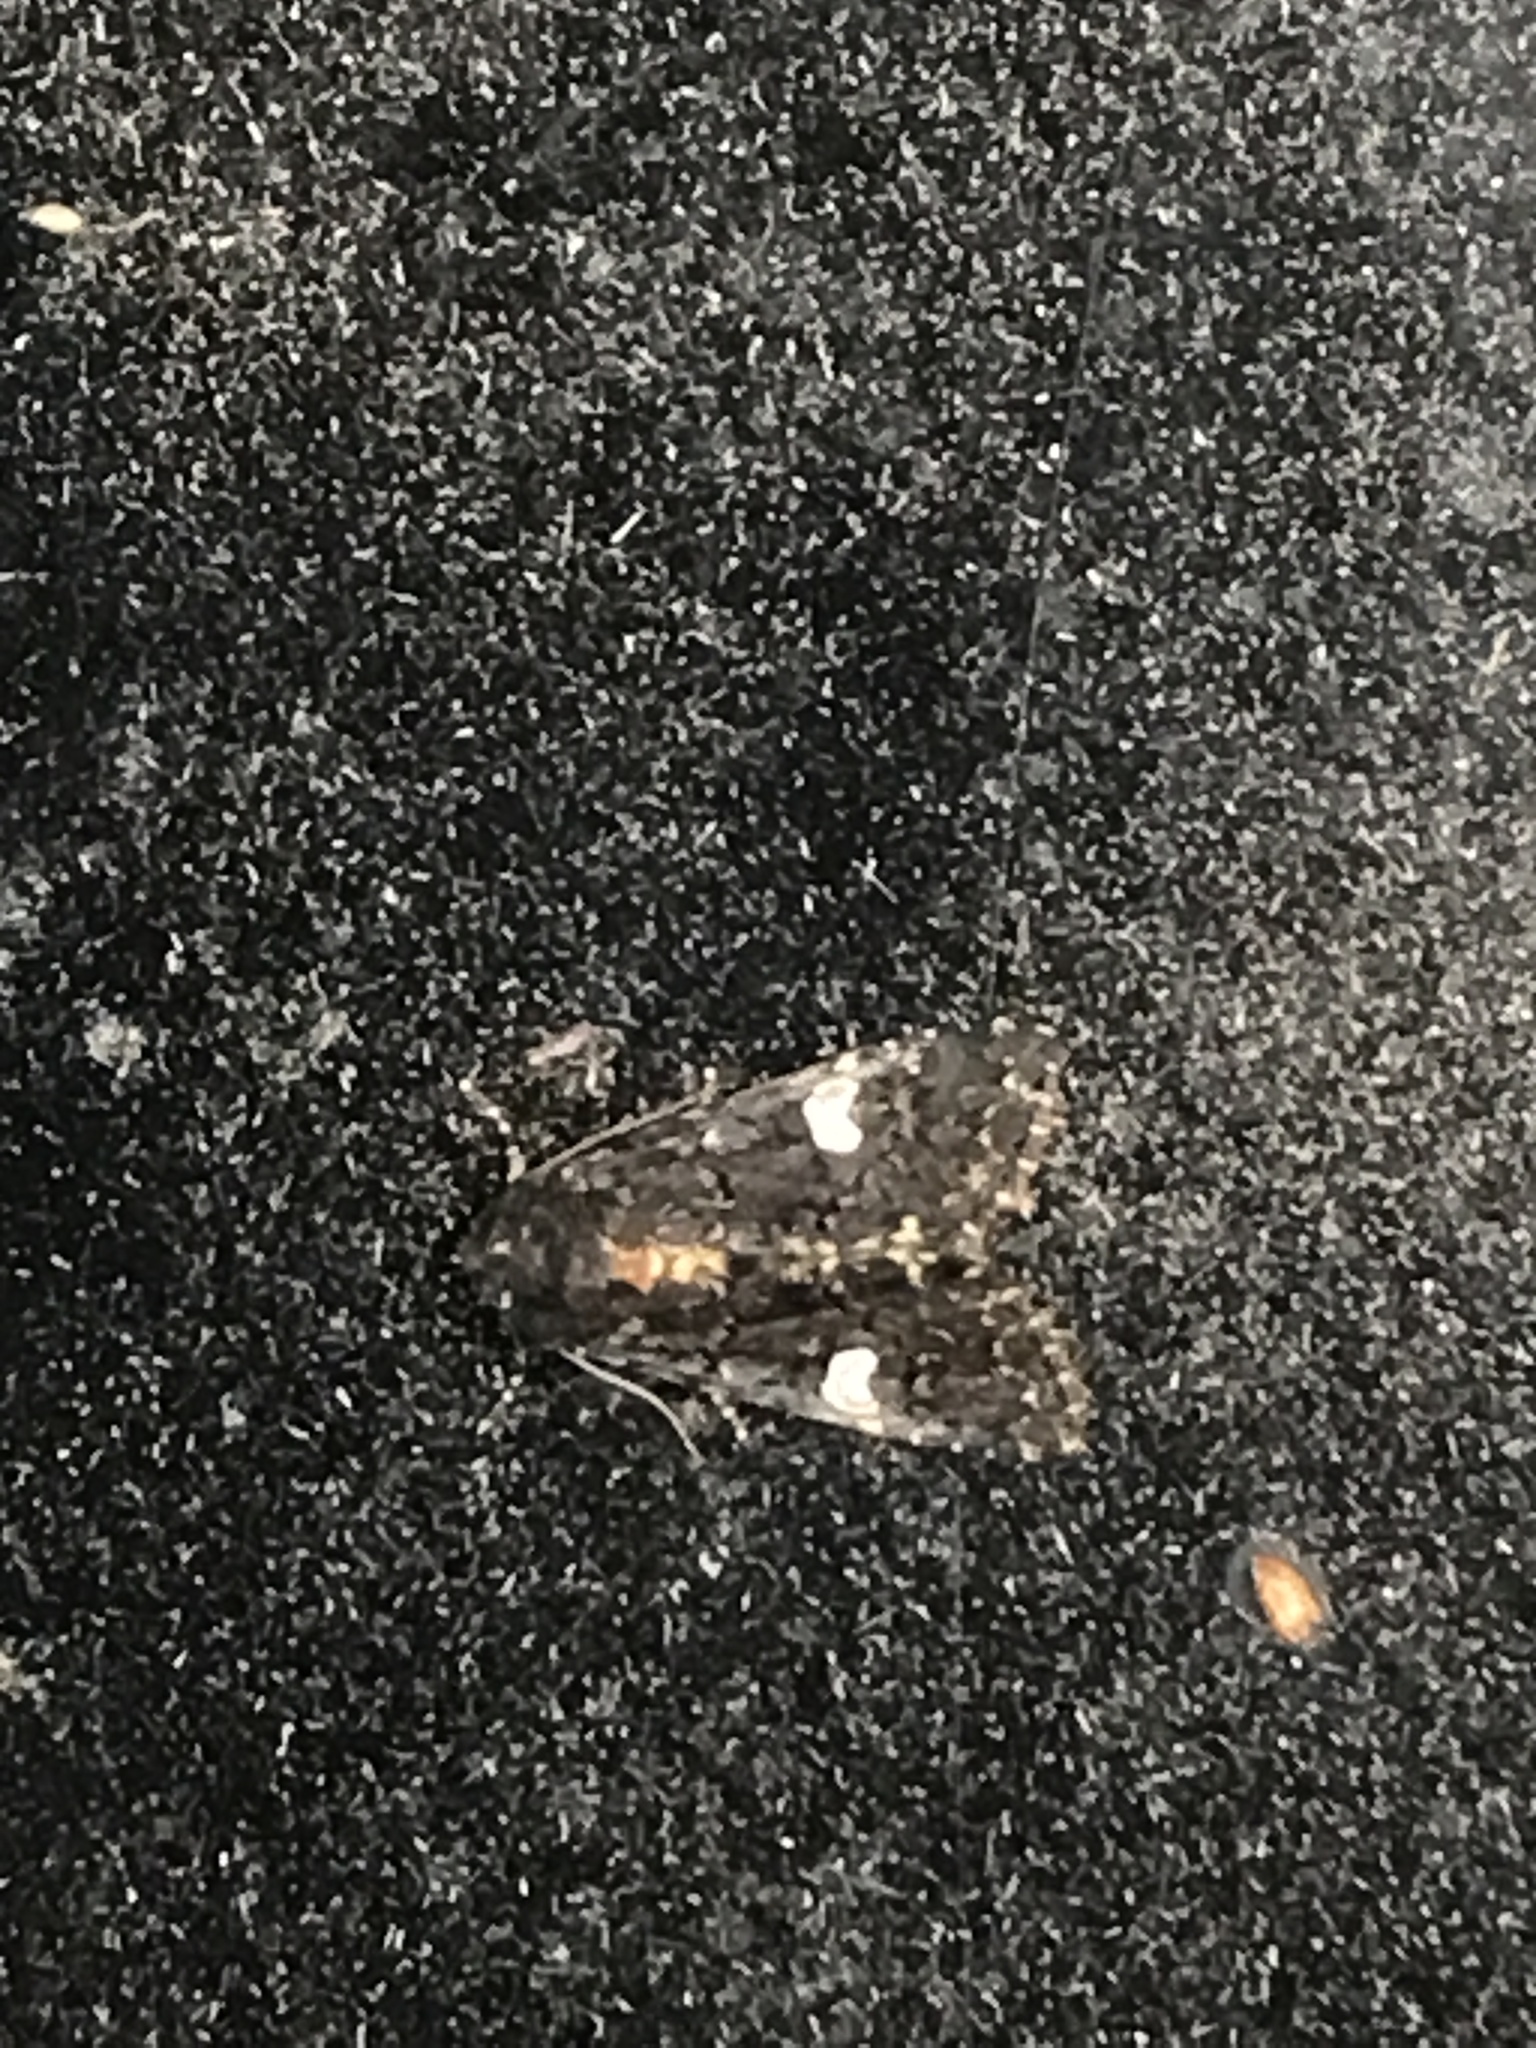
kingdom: Animalia
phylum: Arthropoda
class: Insecta
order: Lepidoptera
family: Noctuidae
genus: Melanchra
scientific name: Melanchra persicariae
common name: Dot moth
